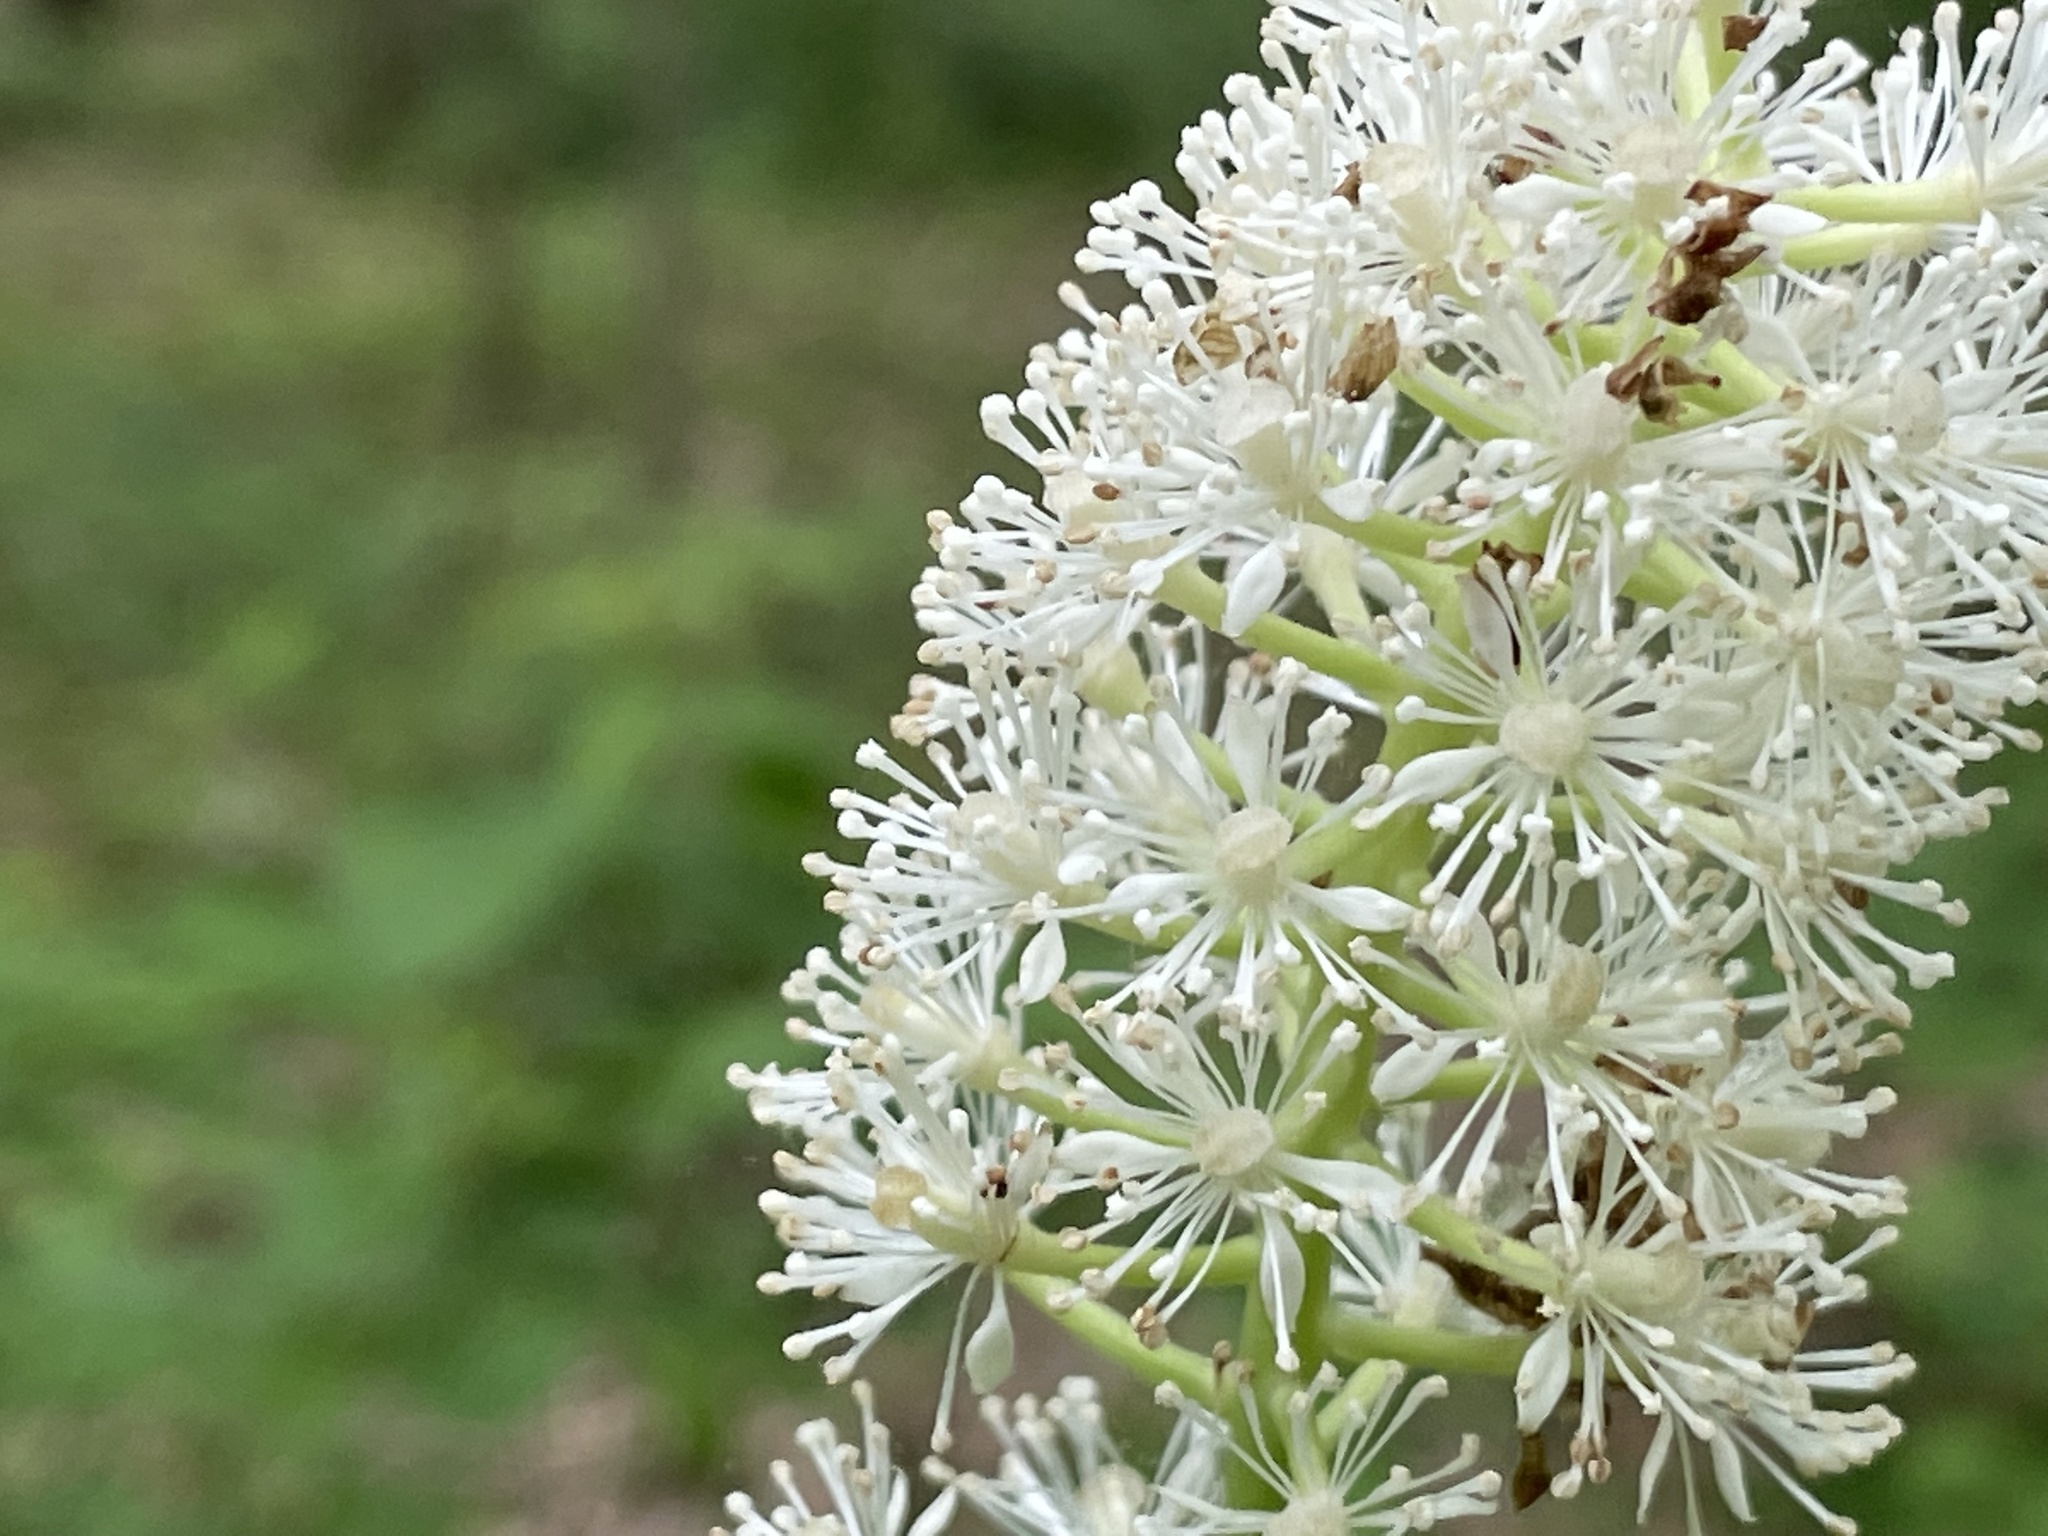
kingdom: Plantae
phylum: Tracheophyta
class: Magnoliopsida
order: Ranunculales
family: Ranunculaceae
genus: Actaea
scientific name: Actaea pachypoda
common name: Doll's-eyes
